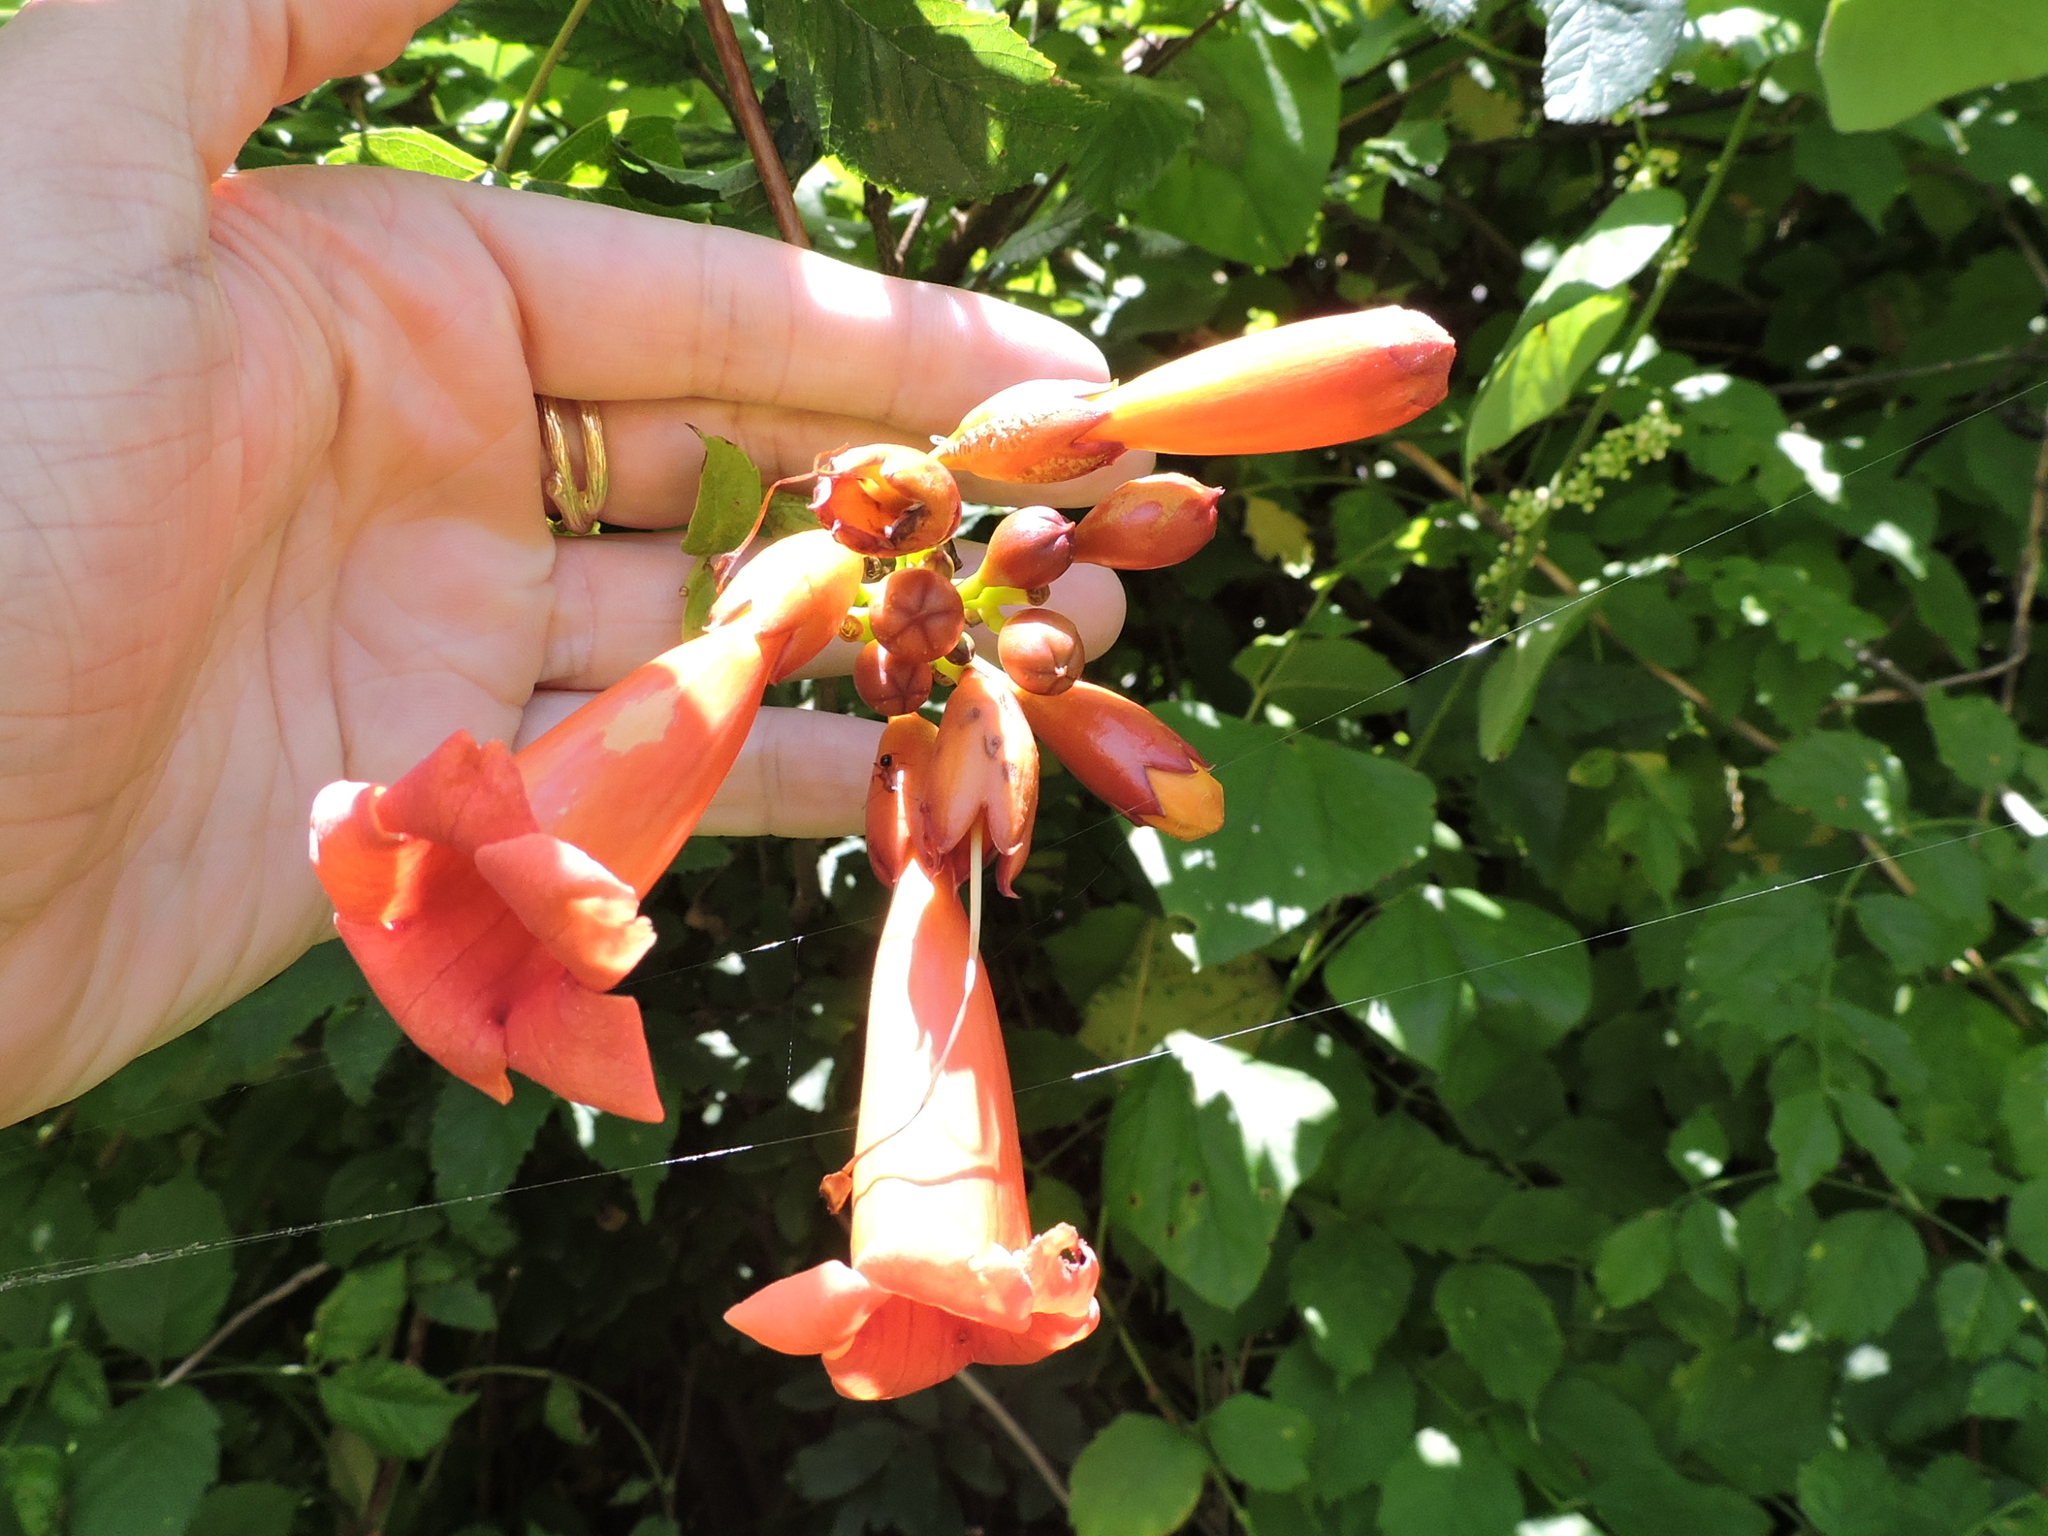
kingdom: Plantae
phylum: Tracheophyta
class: Magnoliopsida
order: Lamiales
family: Bignoniaceae
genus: Campsis
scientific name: Campsis radicans
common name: Trumpet-creeper
